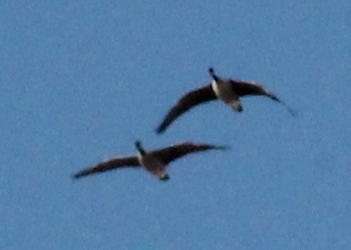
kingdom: Animalia
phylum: Chordata
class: Aves
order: Anseriformes
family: Anatidae
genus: Branta
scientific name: Branta canadensis
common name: Canada goose
